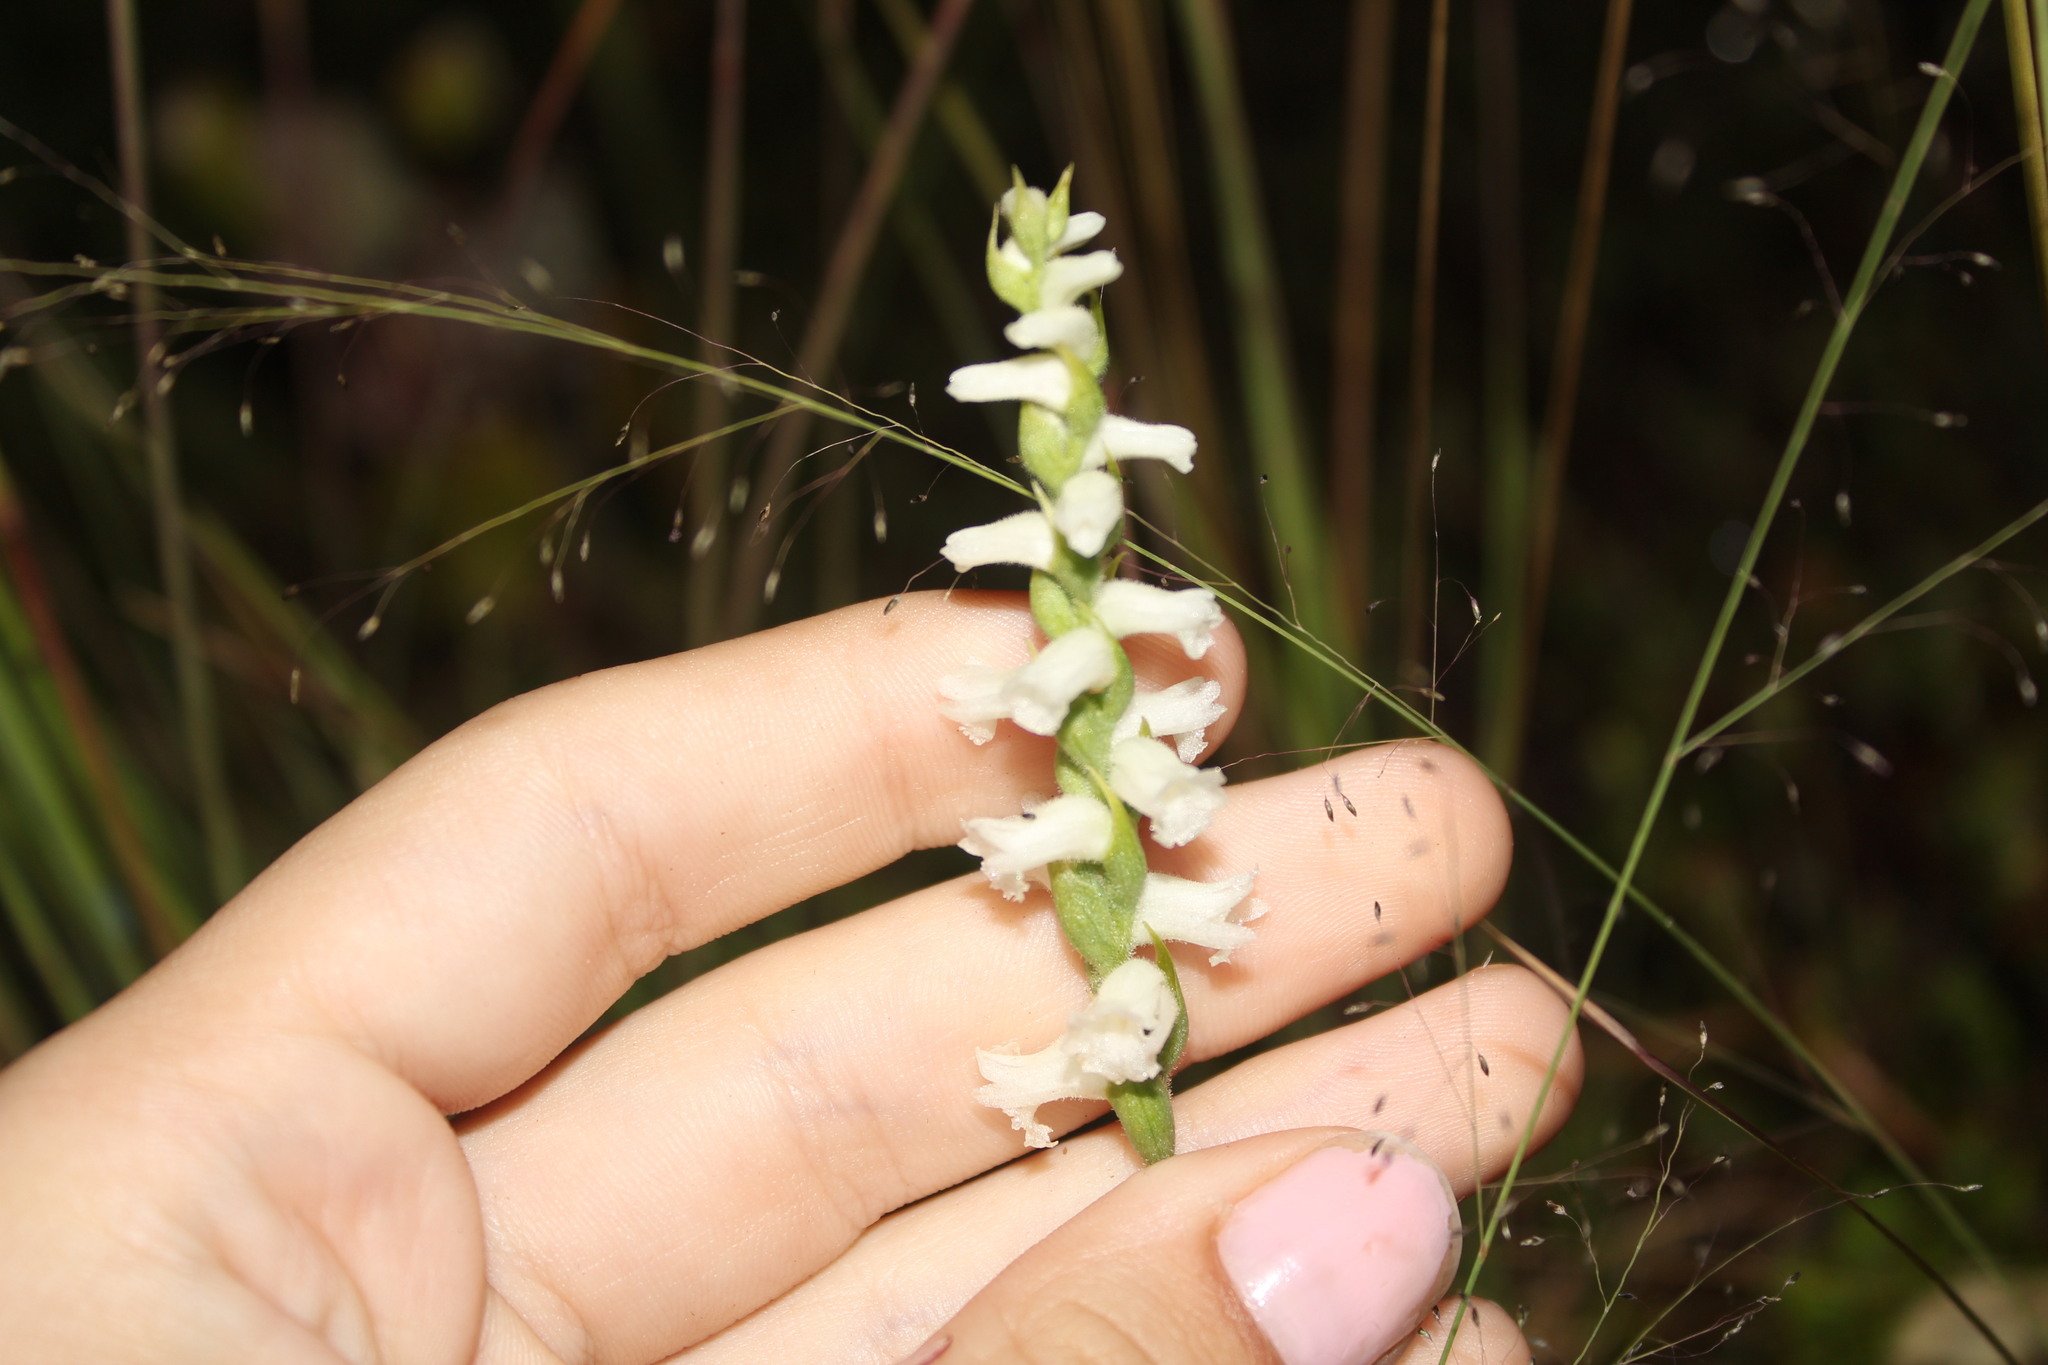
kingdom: Plantae
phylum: Tracheophyta
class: Liliopsida
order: Asparagales
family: Orchidaceae
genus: Spiranthes
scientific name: Spiranthes arcisepala
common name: Appalachian ladies'-tresses
